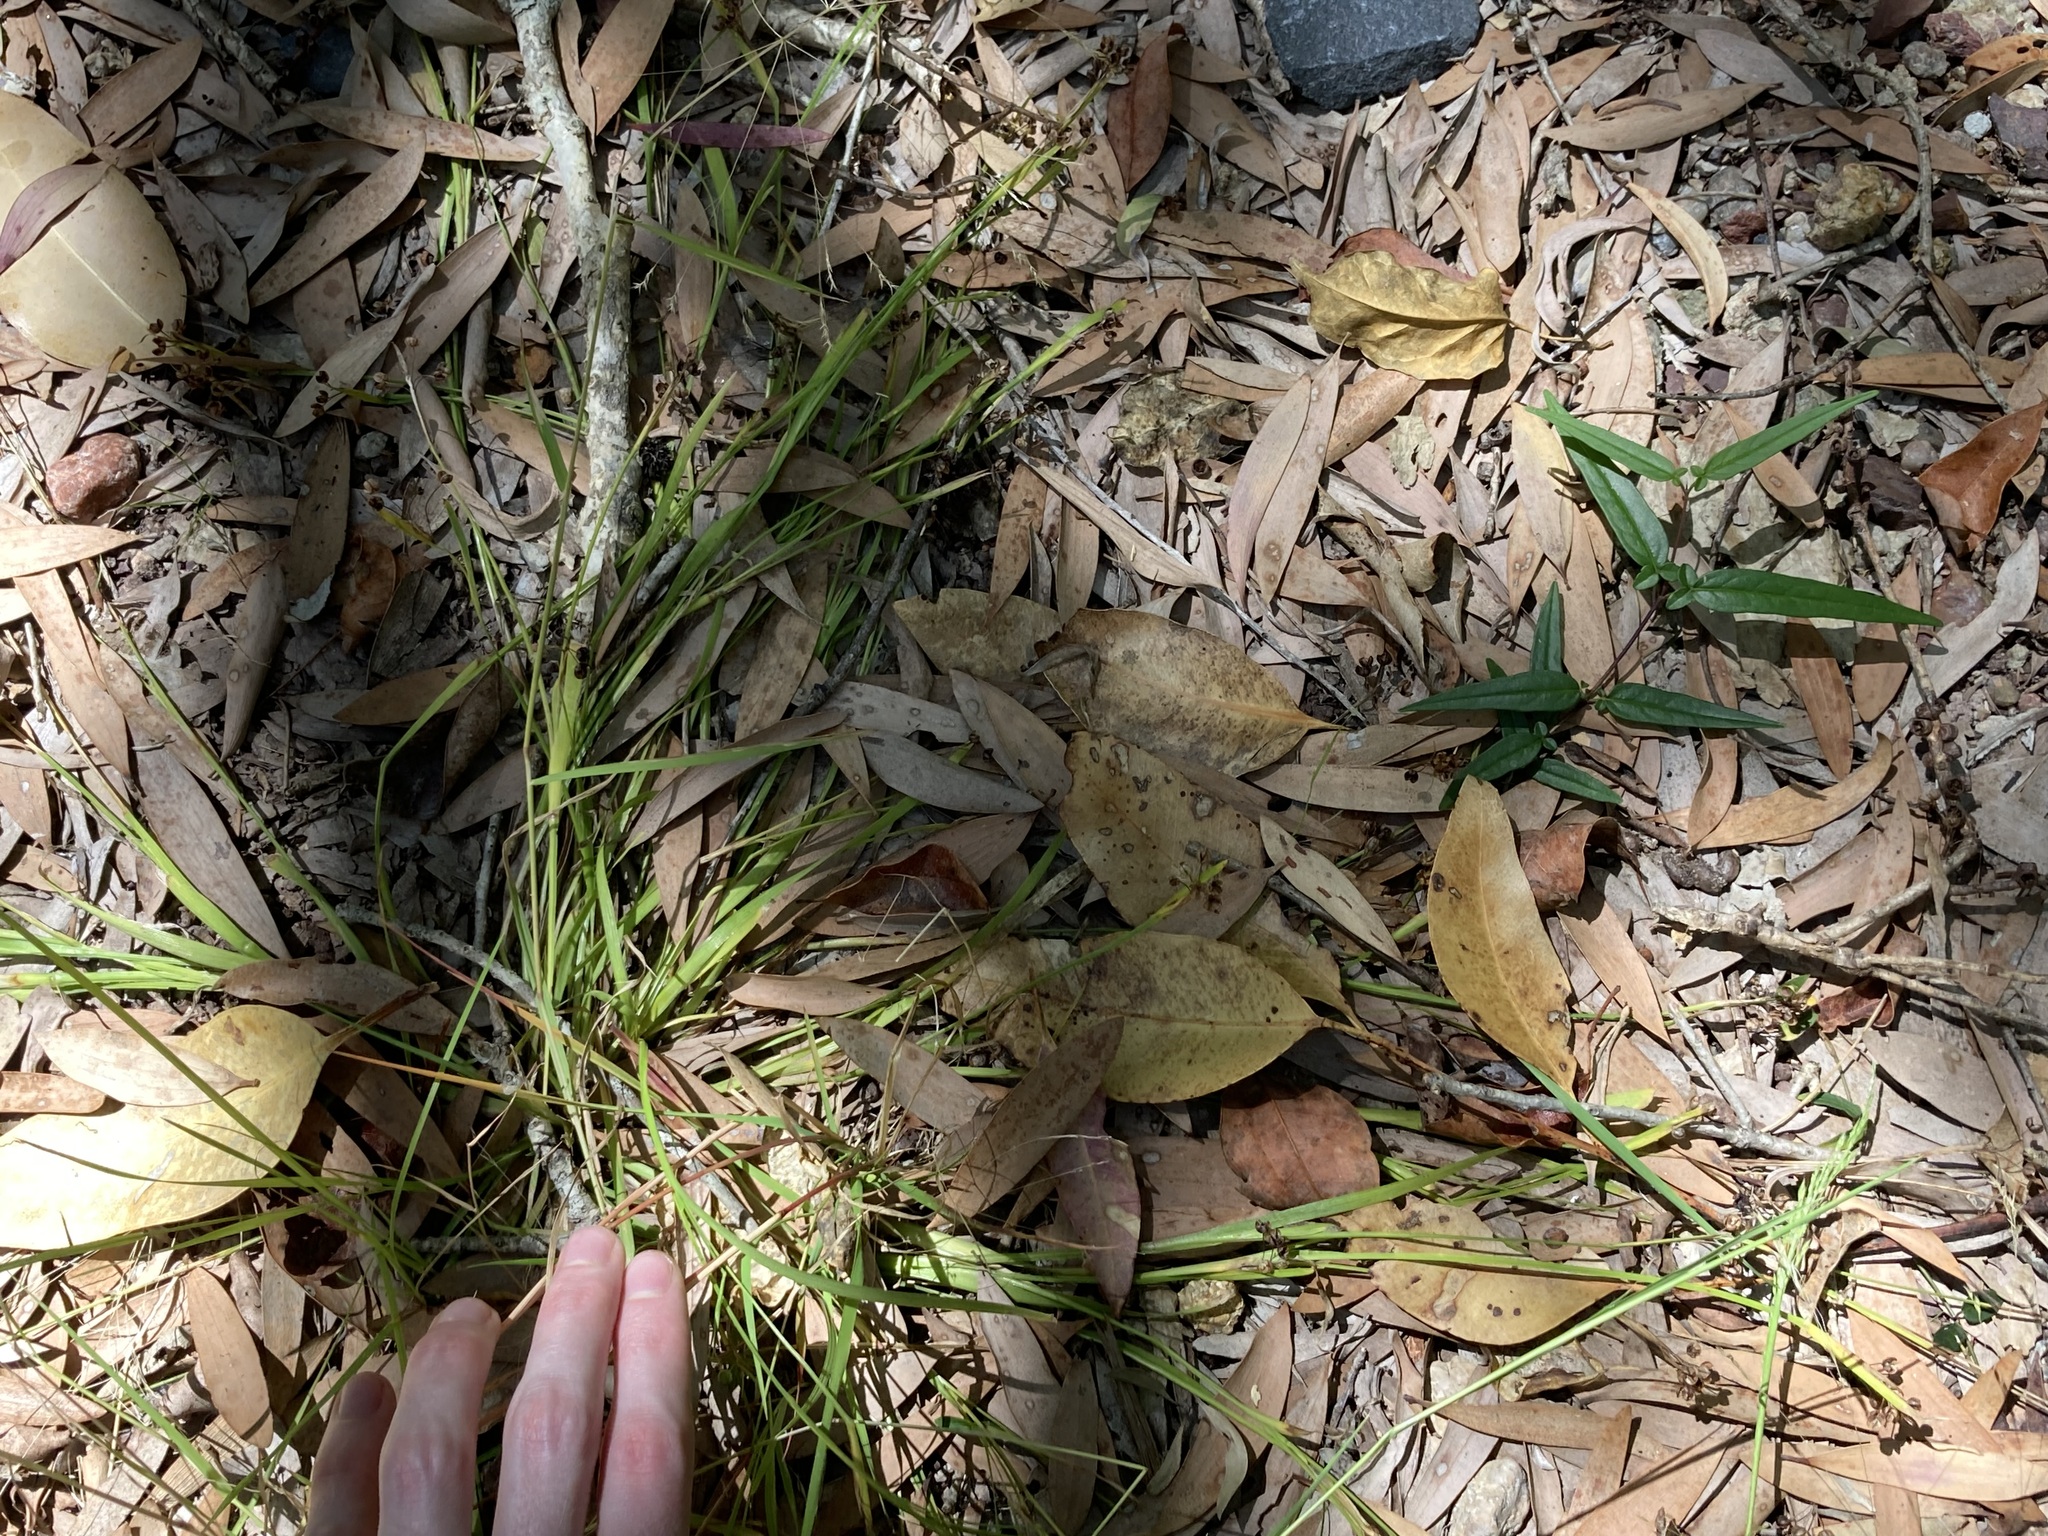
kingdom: Plantae
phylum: Tracheophyta
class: Liliopsida
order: Asparagales
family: Iridaceae
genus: Sisyrinchium
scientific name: Sisyrinchium micranthum
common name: Bermuda pigroot
